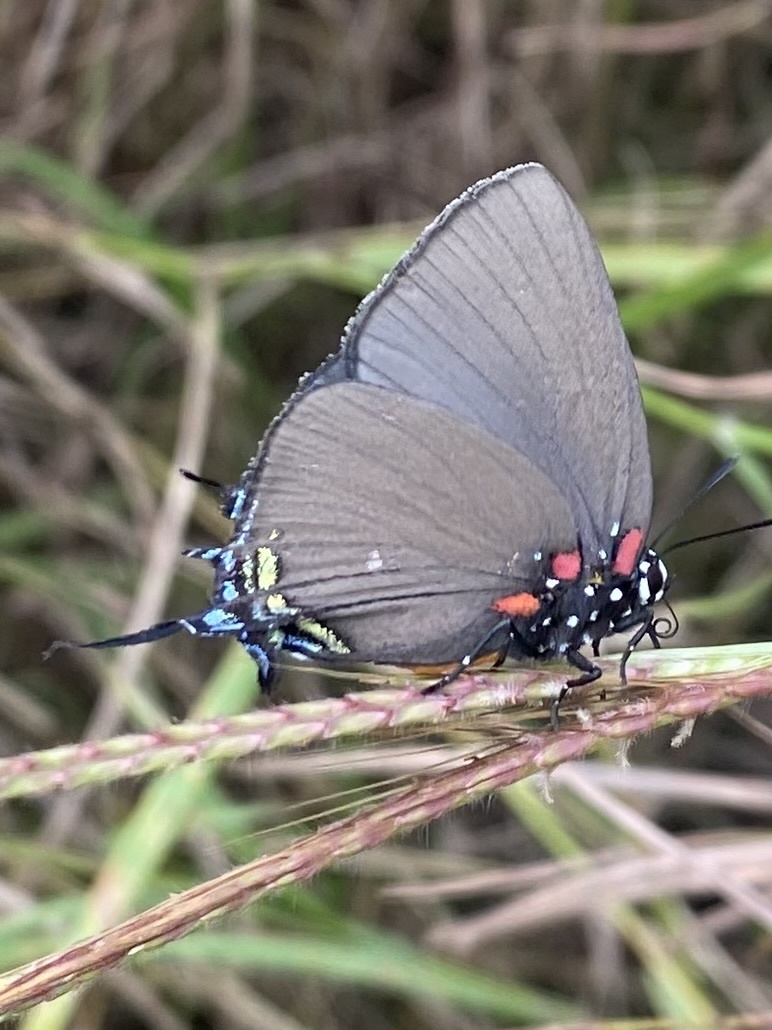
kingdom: Animalia
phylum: Arthropoda
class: Insecta
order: Lepidoptera
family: Lycaenidae
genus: Atlides
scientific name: Atlides halesus
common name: Great purple hairstreak
